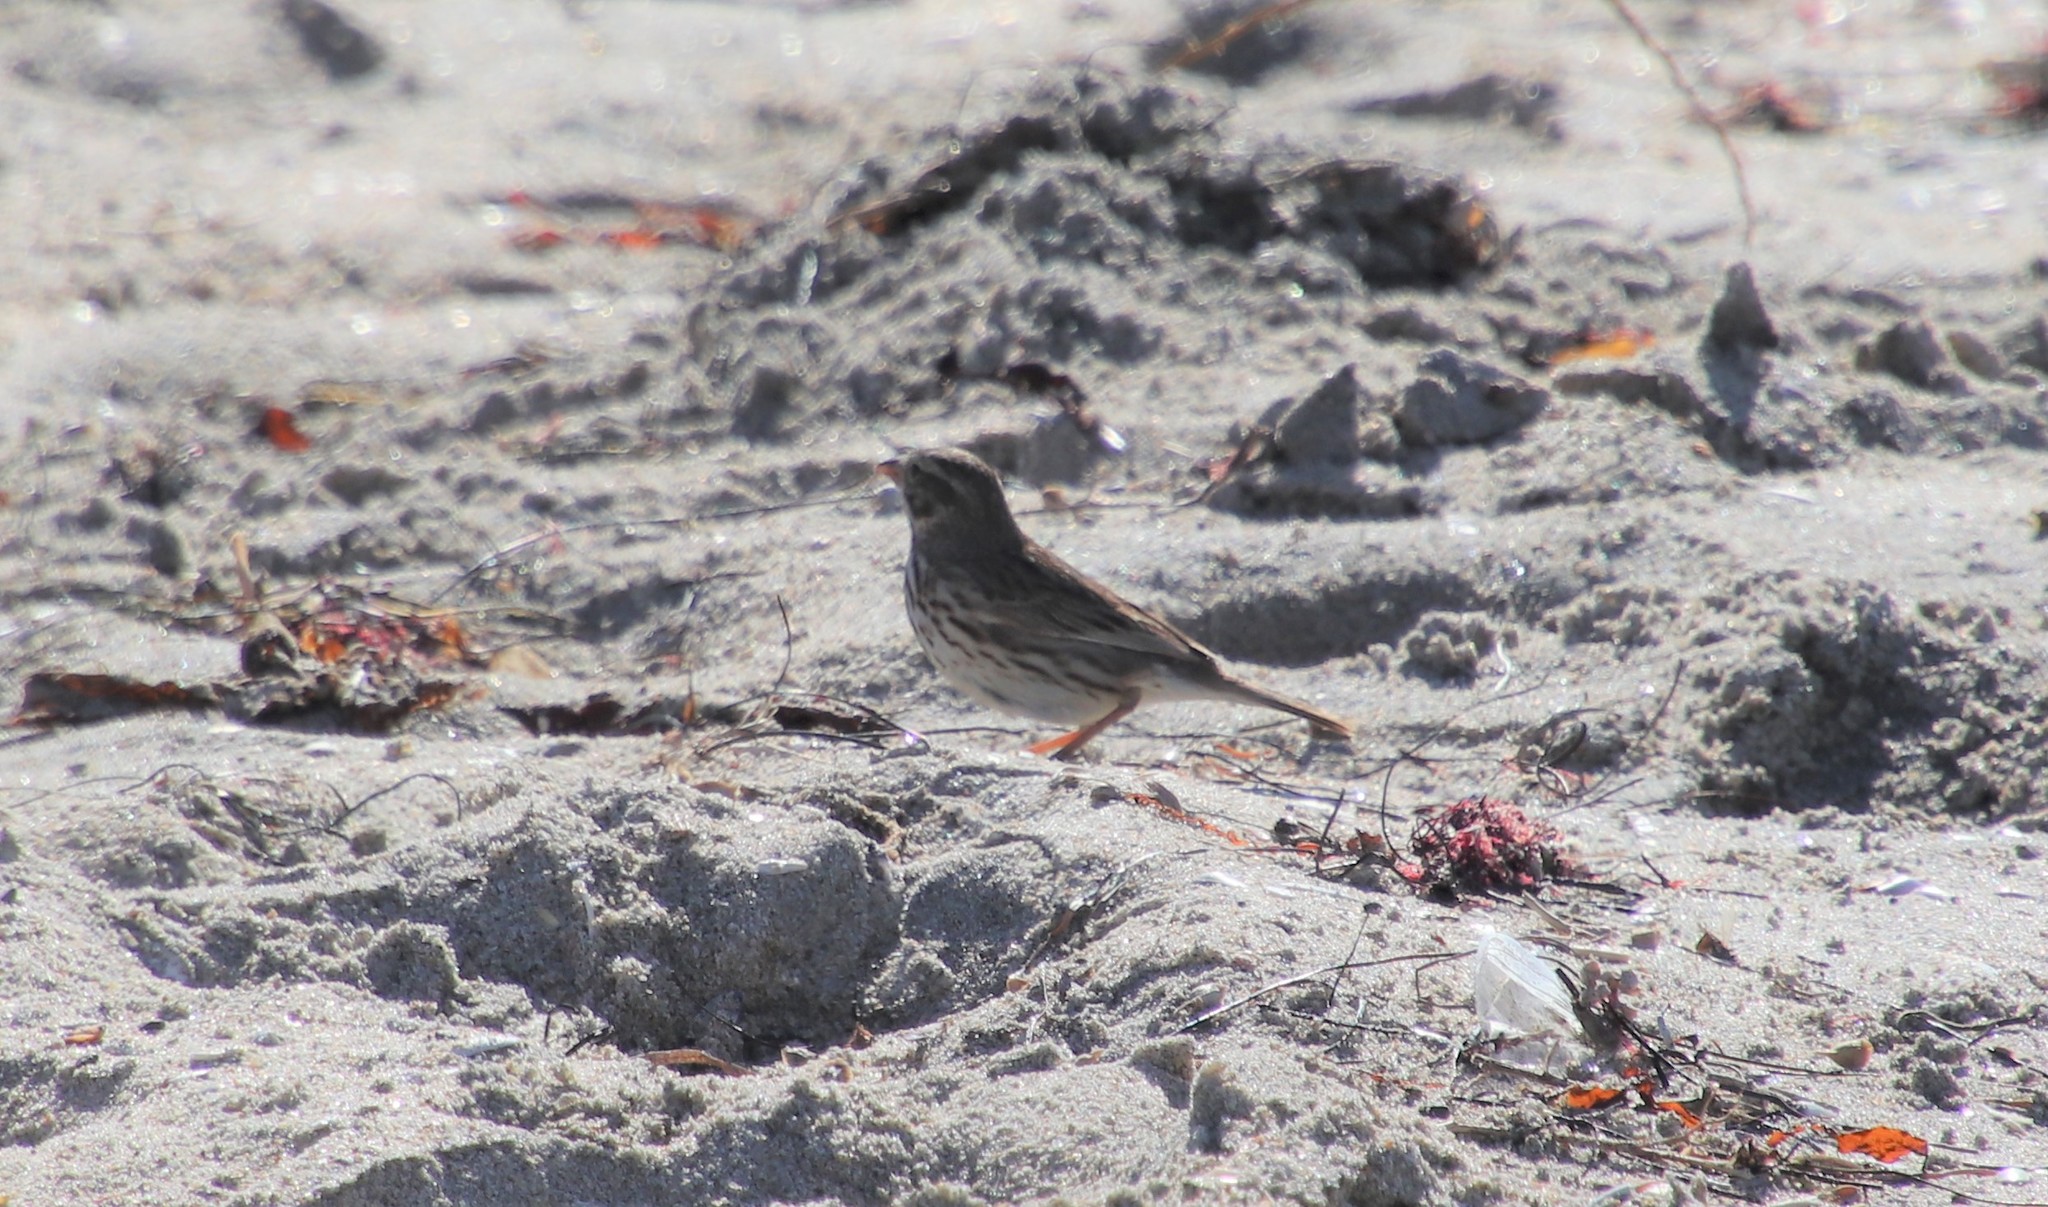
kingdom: Animalia
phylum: Chordata
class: Aves
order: Passeriformes
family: Passerellidae
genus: Passerculus
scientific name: Passerculus sandwichensis
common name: Savannah sparrow
